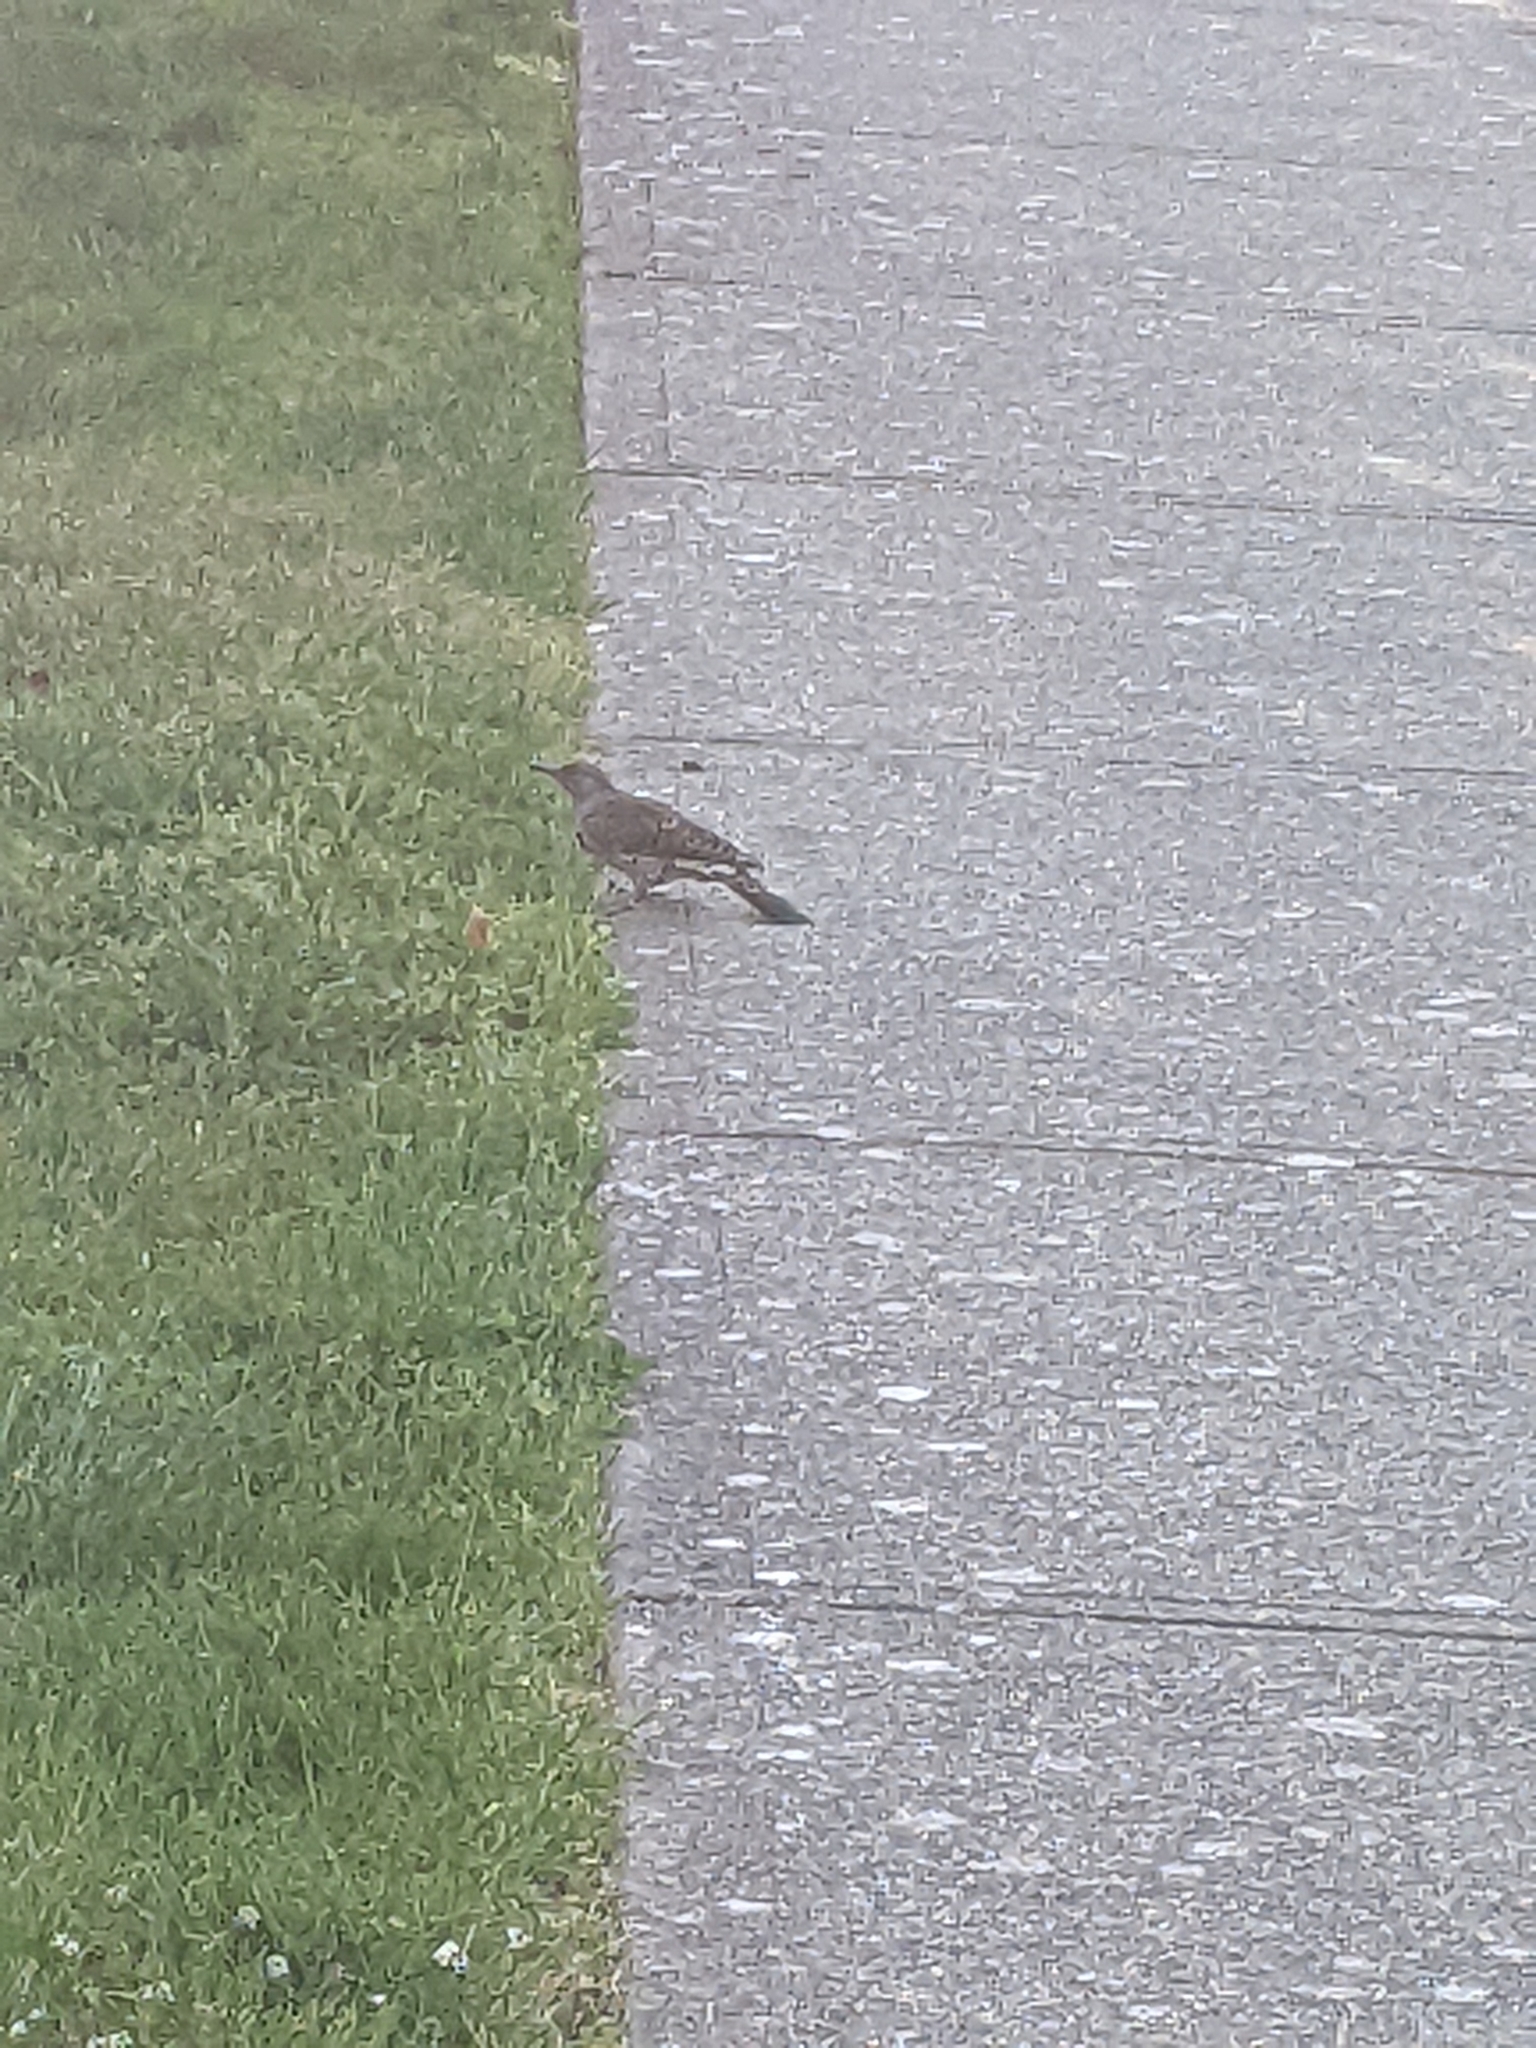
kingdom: Animalia
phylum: Chordata
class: Aves
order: Piciformes
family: Picidae
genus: Colaptes
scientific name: Colaptes auratus
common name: Northern flicker
